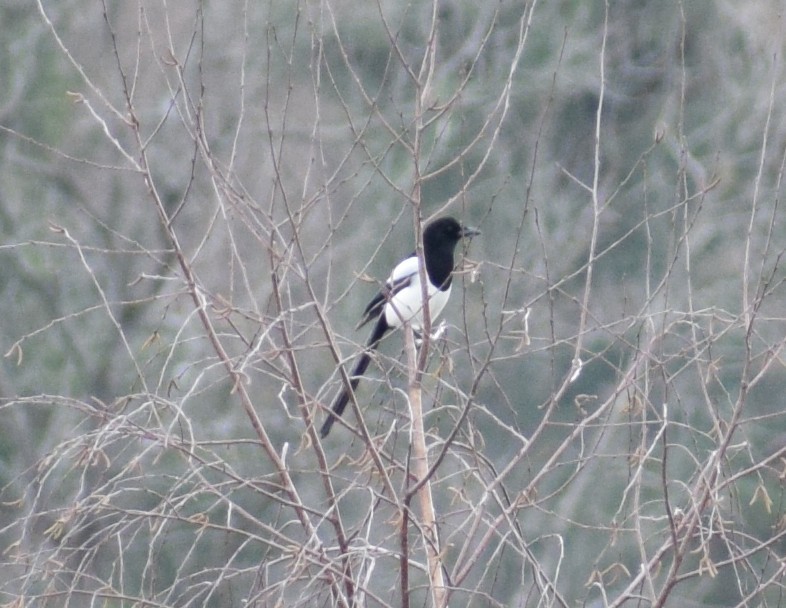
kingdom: Animalia
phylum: Chordata
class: Aves
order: Passeriformes
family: Corvidae
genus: Pica
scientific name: Pica pica
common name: Eurasian magpie
